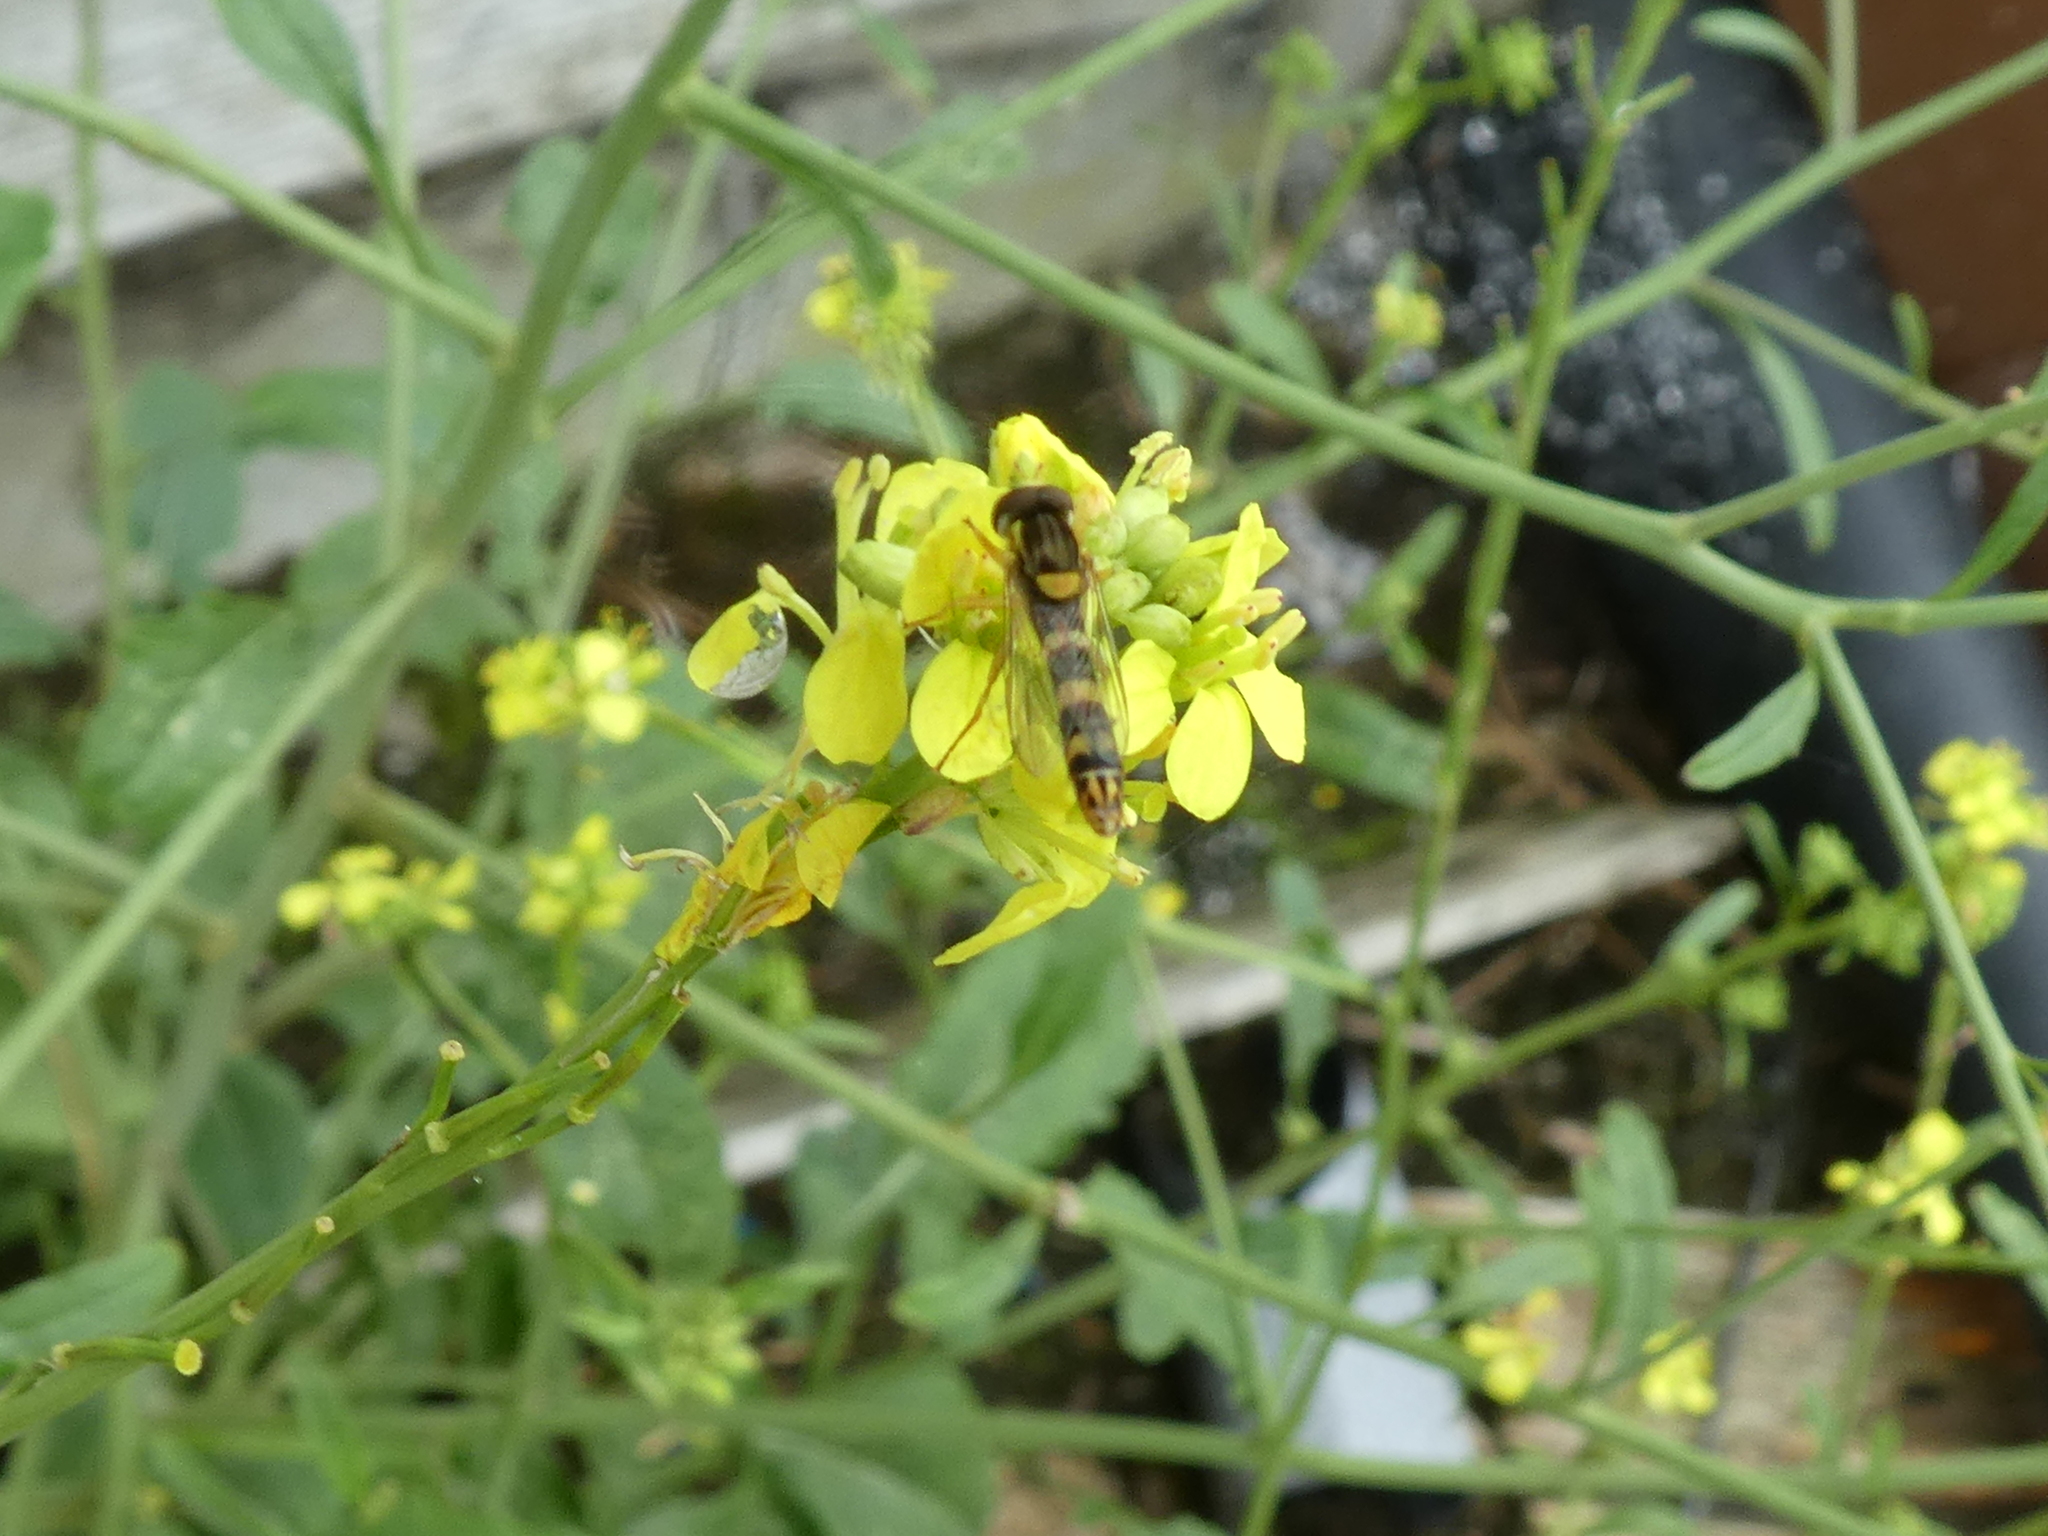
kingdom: Animalia
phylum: Arthropoda
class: Insecta
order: Diptera
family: Syrphidae
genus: Sphaerophoria
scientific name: Sphaerophoria scripta
